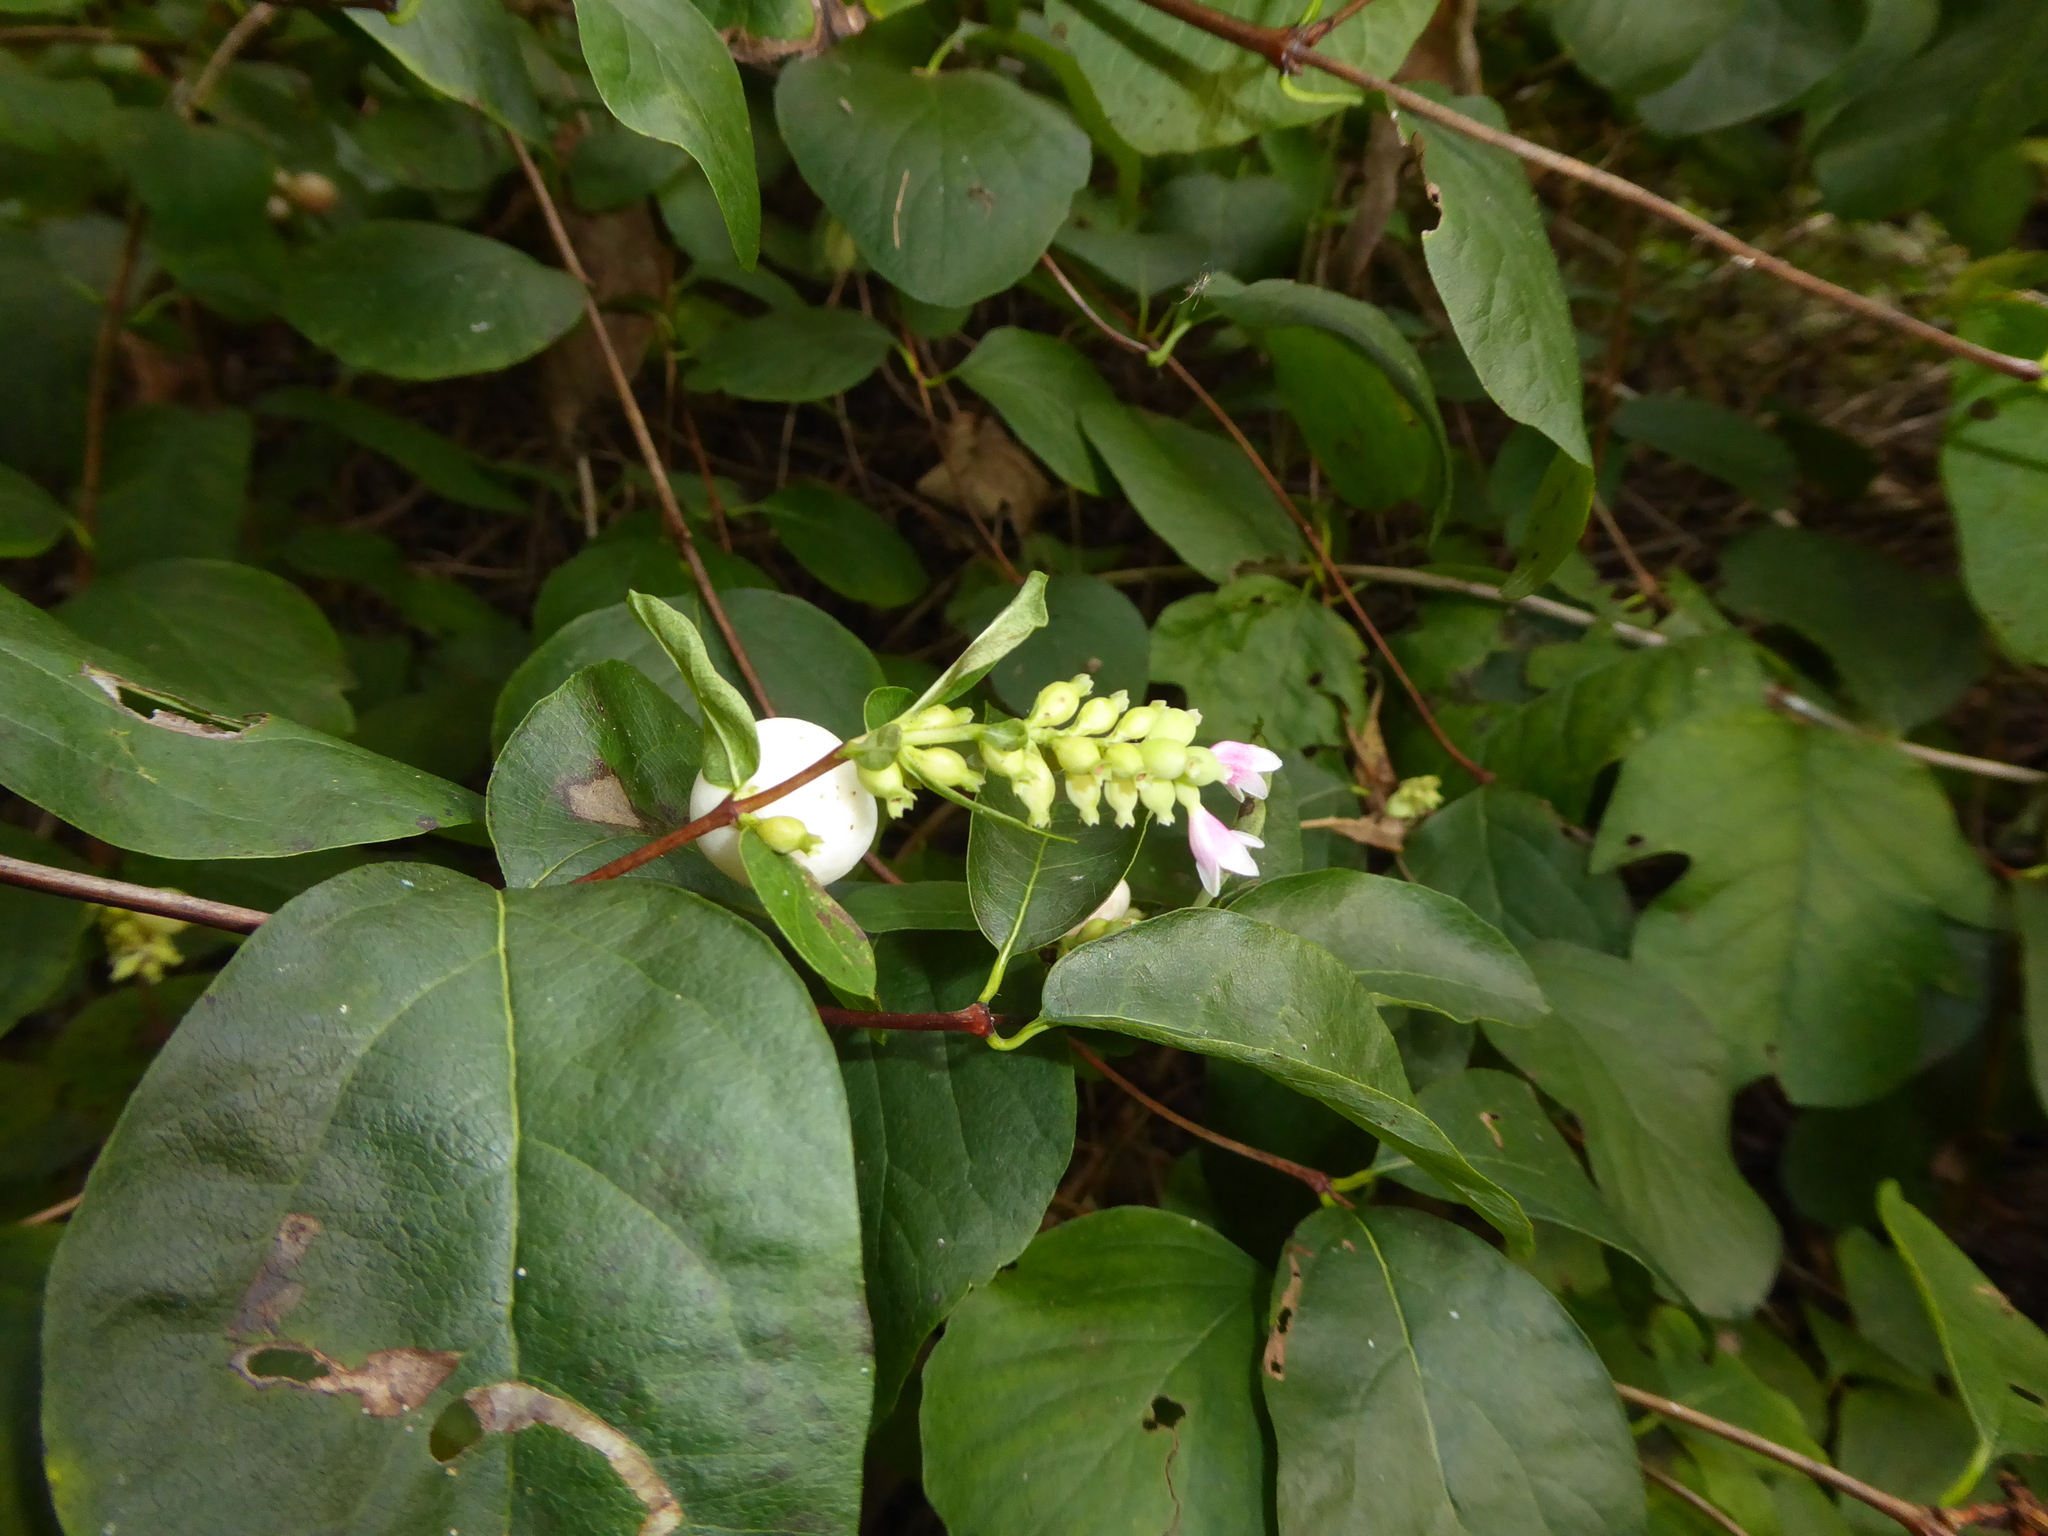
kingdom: Plantae
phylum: Tracheophyta
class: Magnoliopsida
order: Dipsacales
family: Caprifoliaceae
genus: Symphoricarpos
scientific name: Symphoricarpos albus
